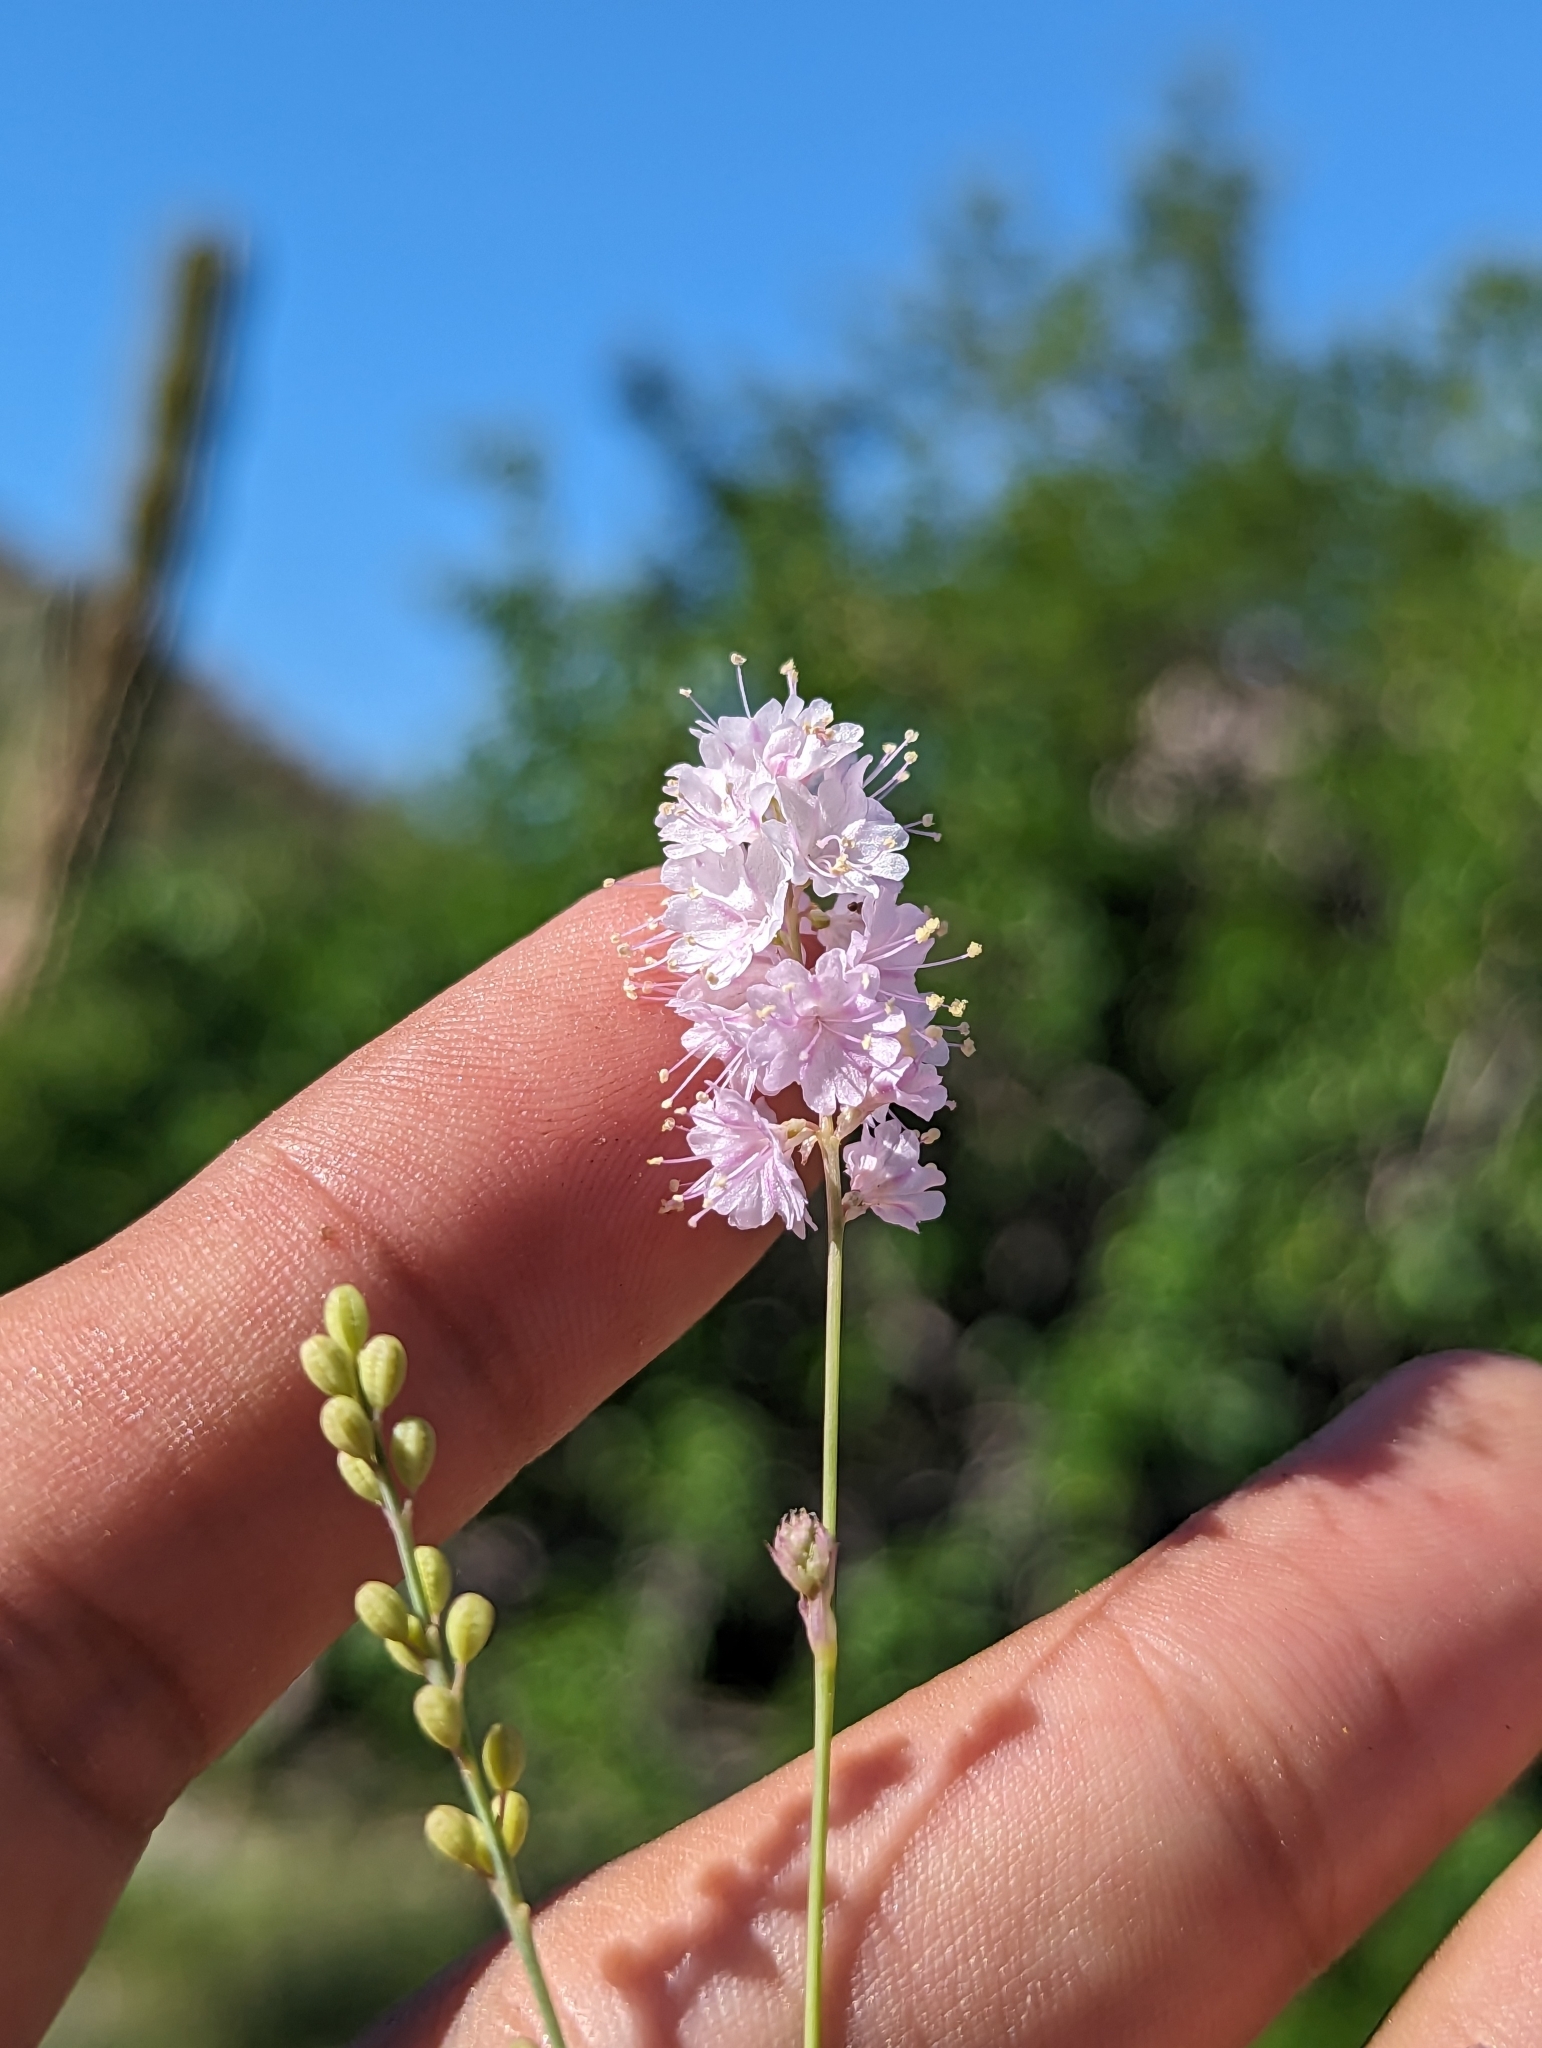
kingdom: Plantae
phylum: Tracheophyta
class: Magnoliopsida
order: Caryophyllales
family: Nyctaginaceae
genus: Boerhavia
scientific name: Boerhavia xantii
